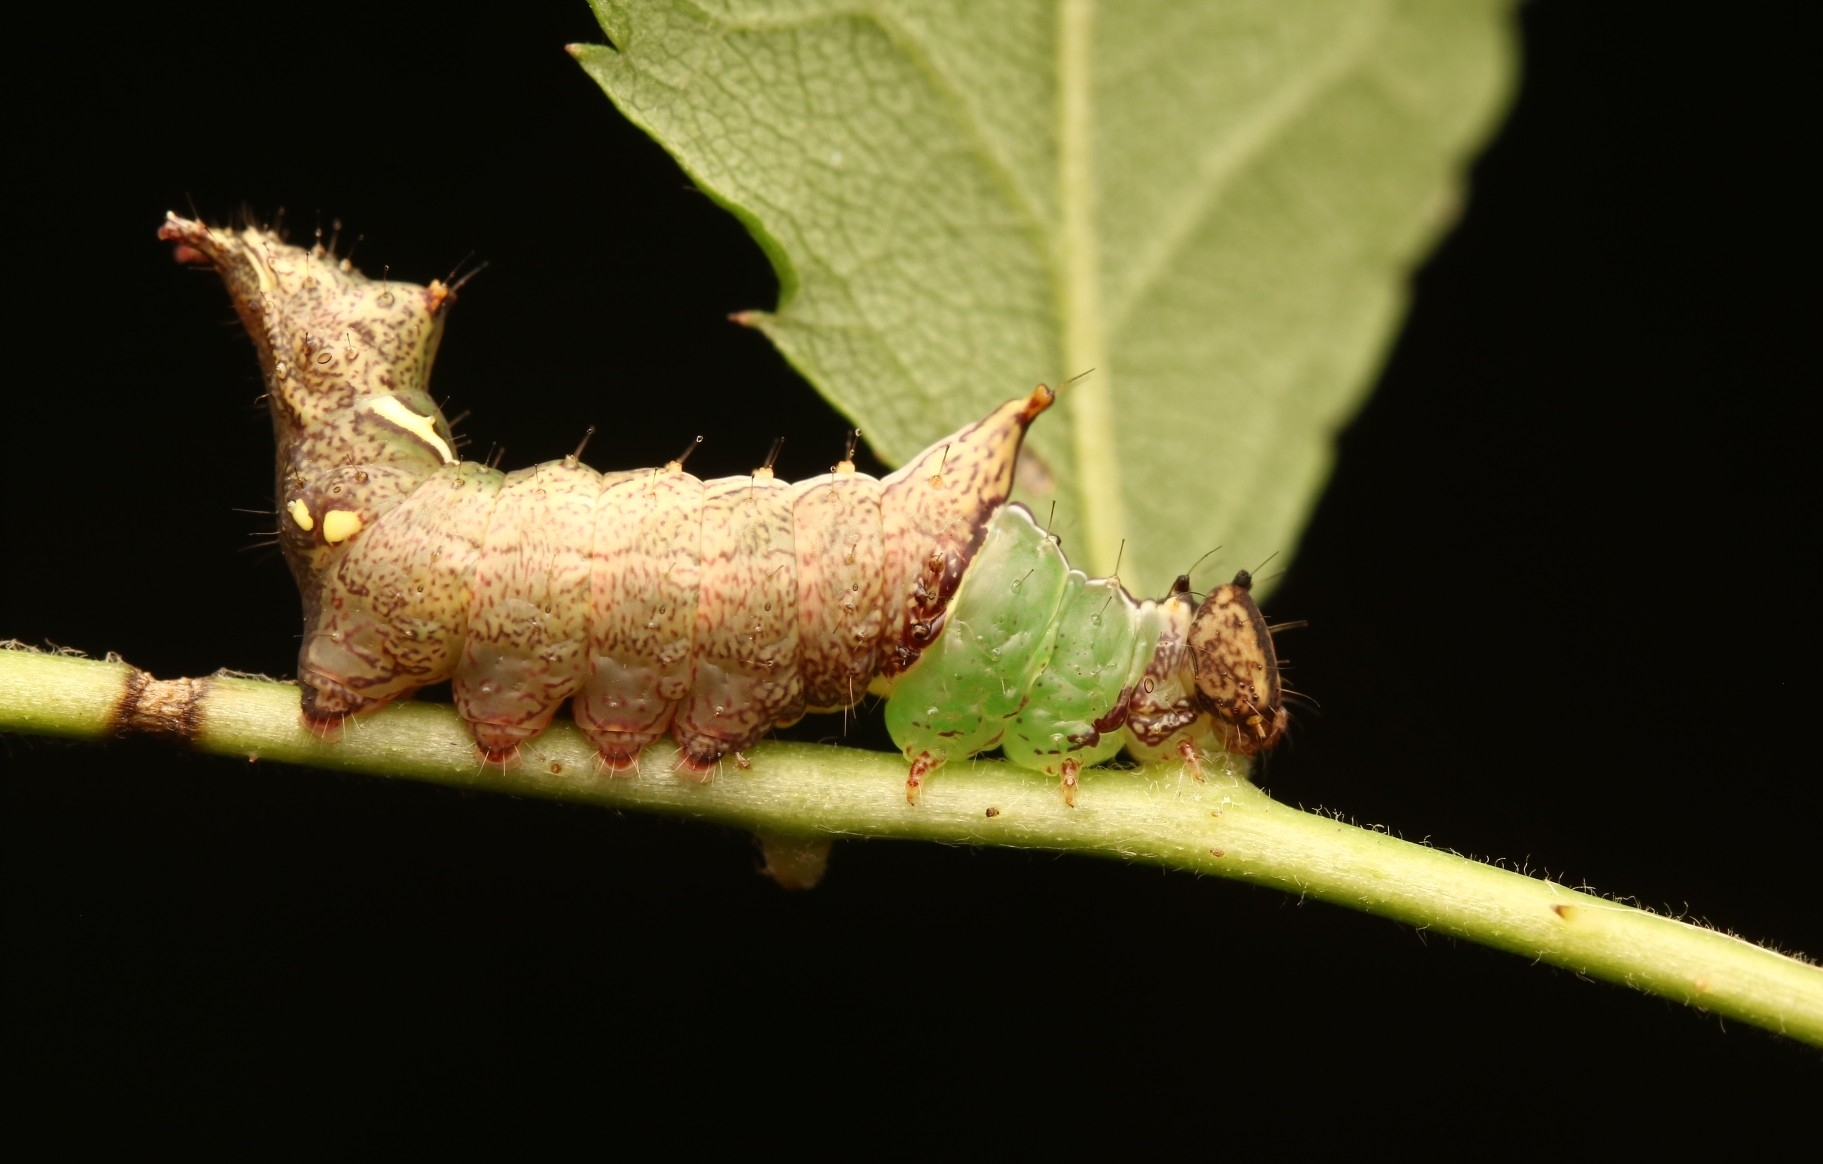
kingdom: Animalia
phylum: Arthropoda
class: Insecta
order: Lepidoptera
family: Notodontidae
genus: Schizura
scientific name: Schizura
